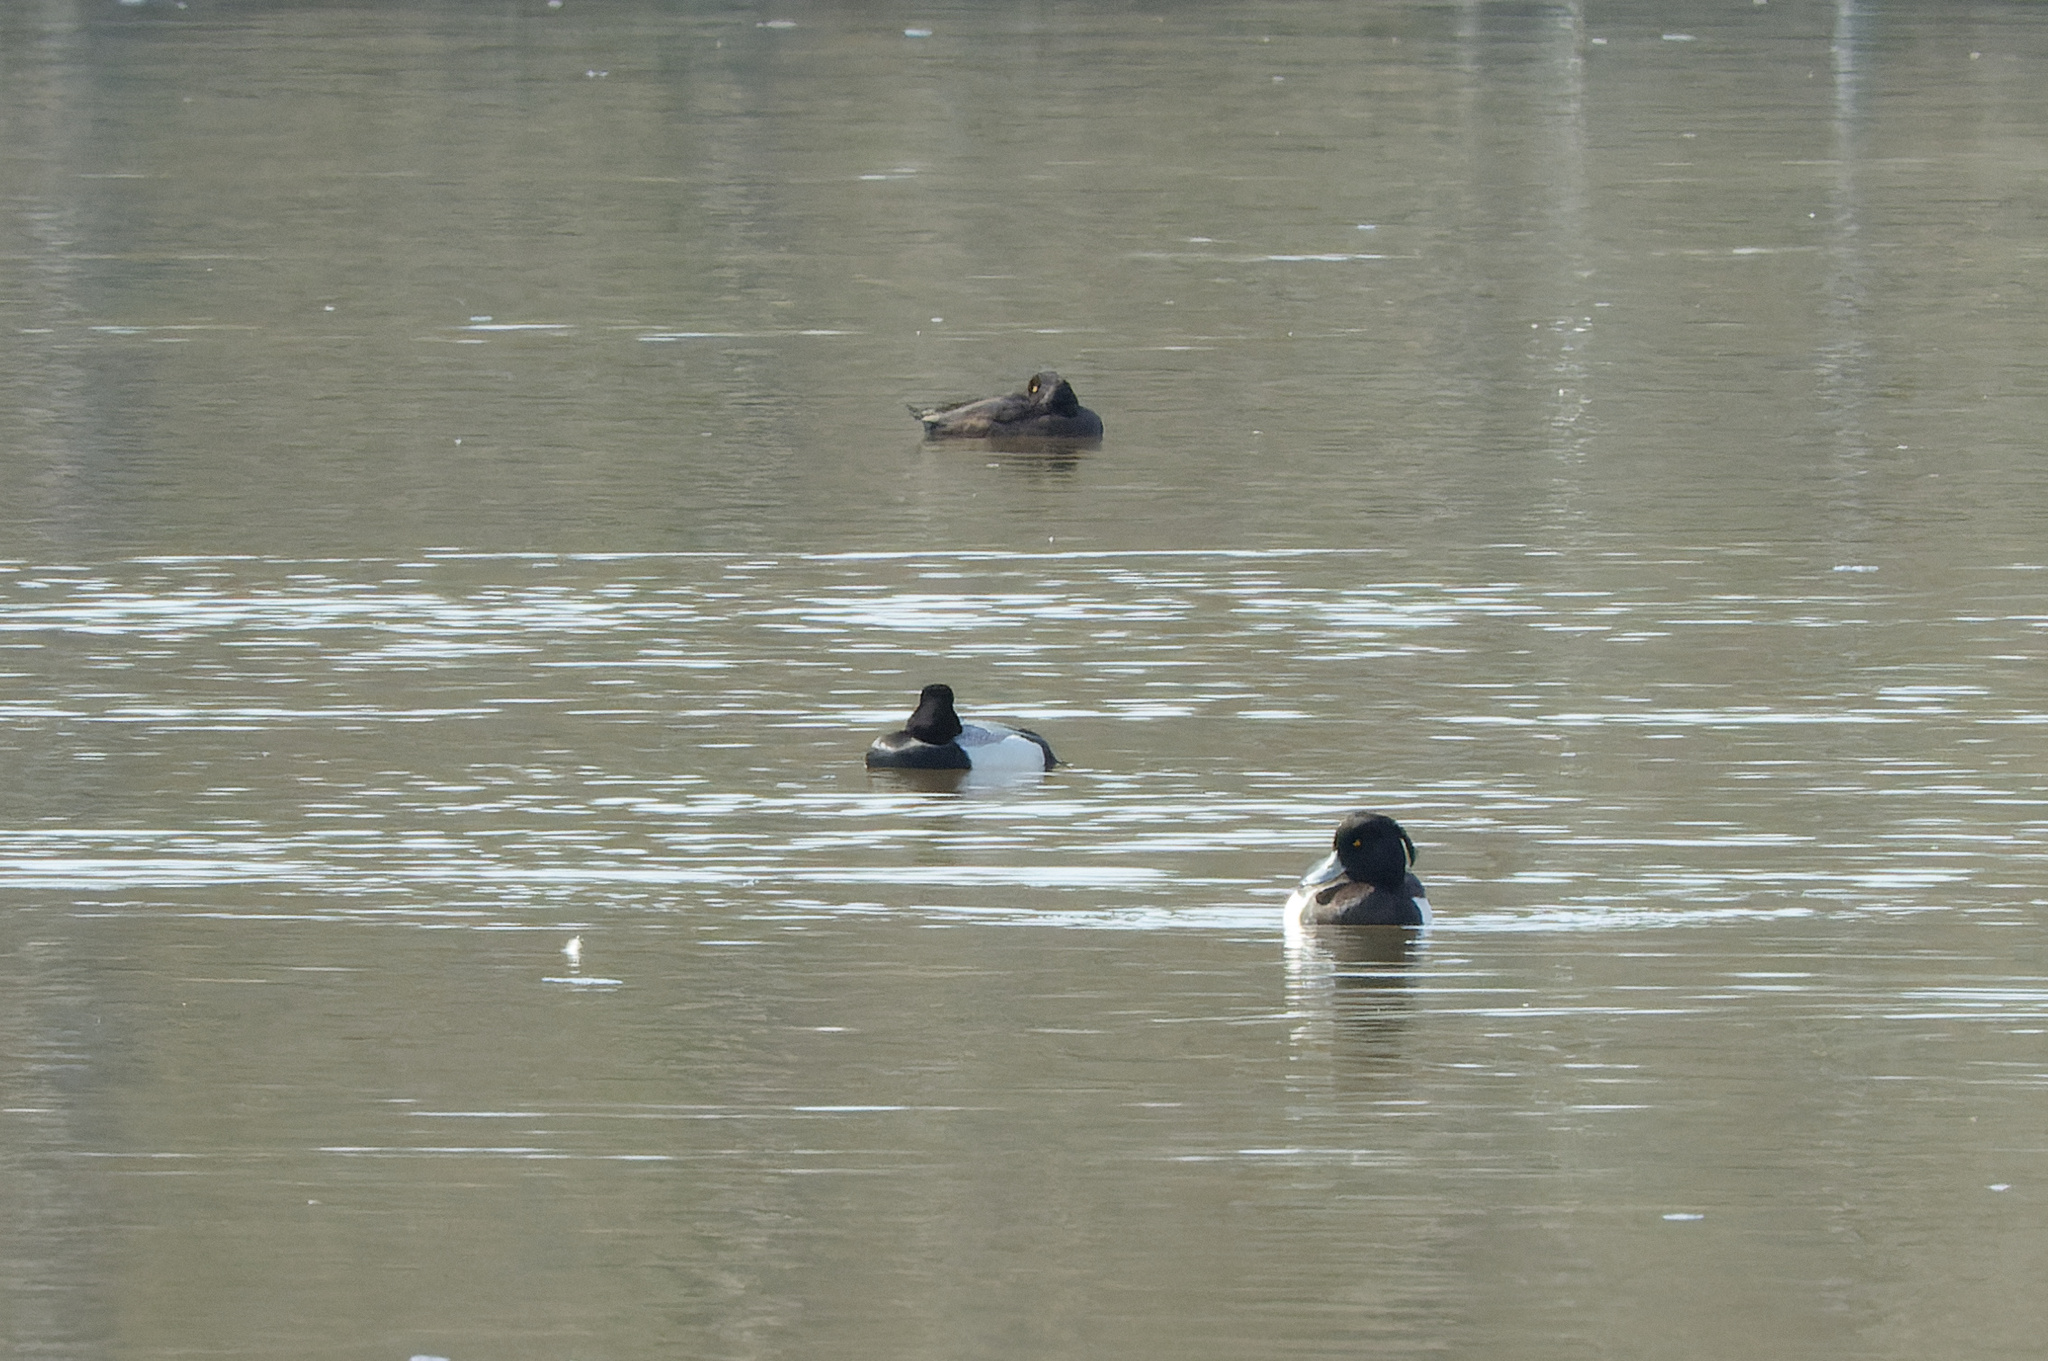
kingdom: Animalia
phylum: Chordata
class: Aves
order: Anseriformes
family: Anatidae
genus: Aythya
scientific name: Aythya affinis
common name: Lesser scaup
